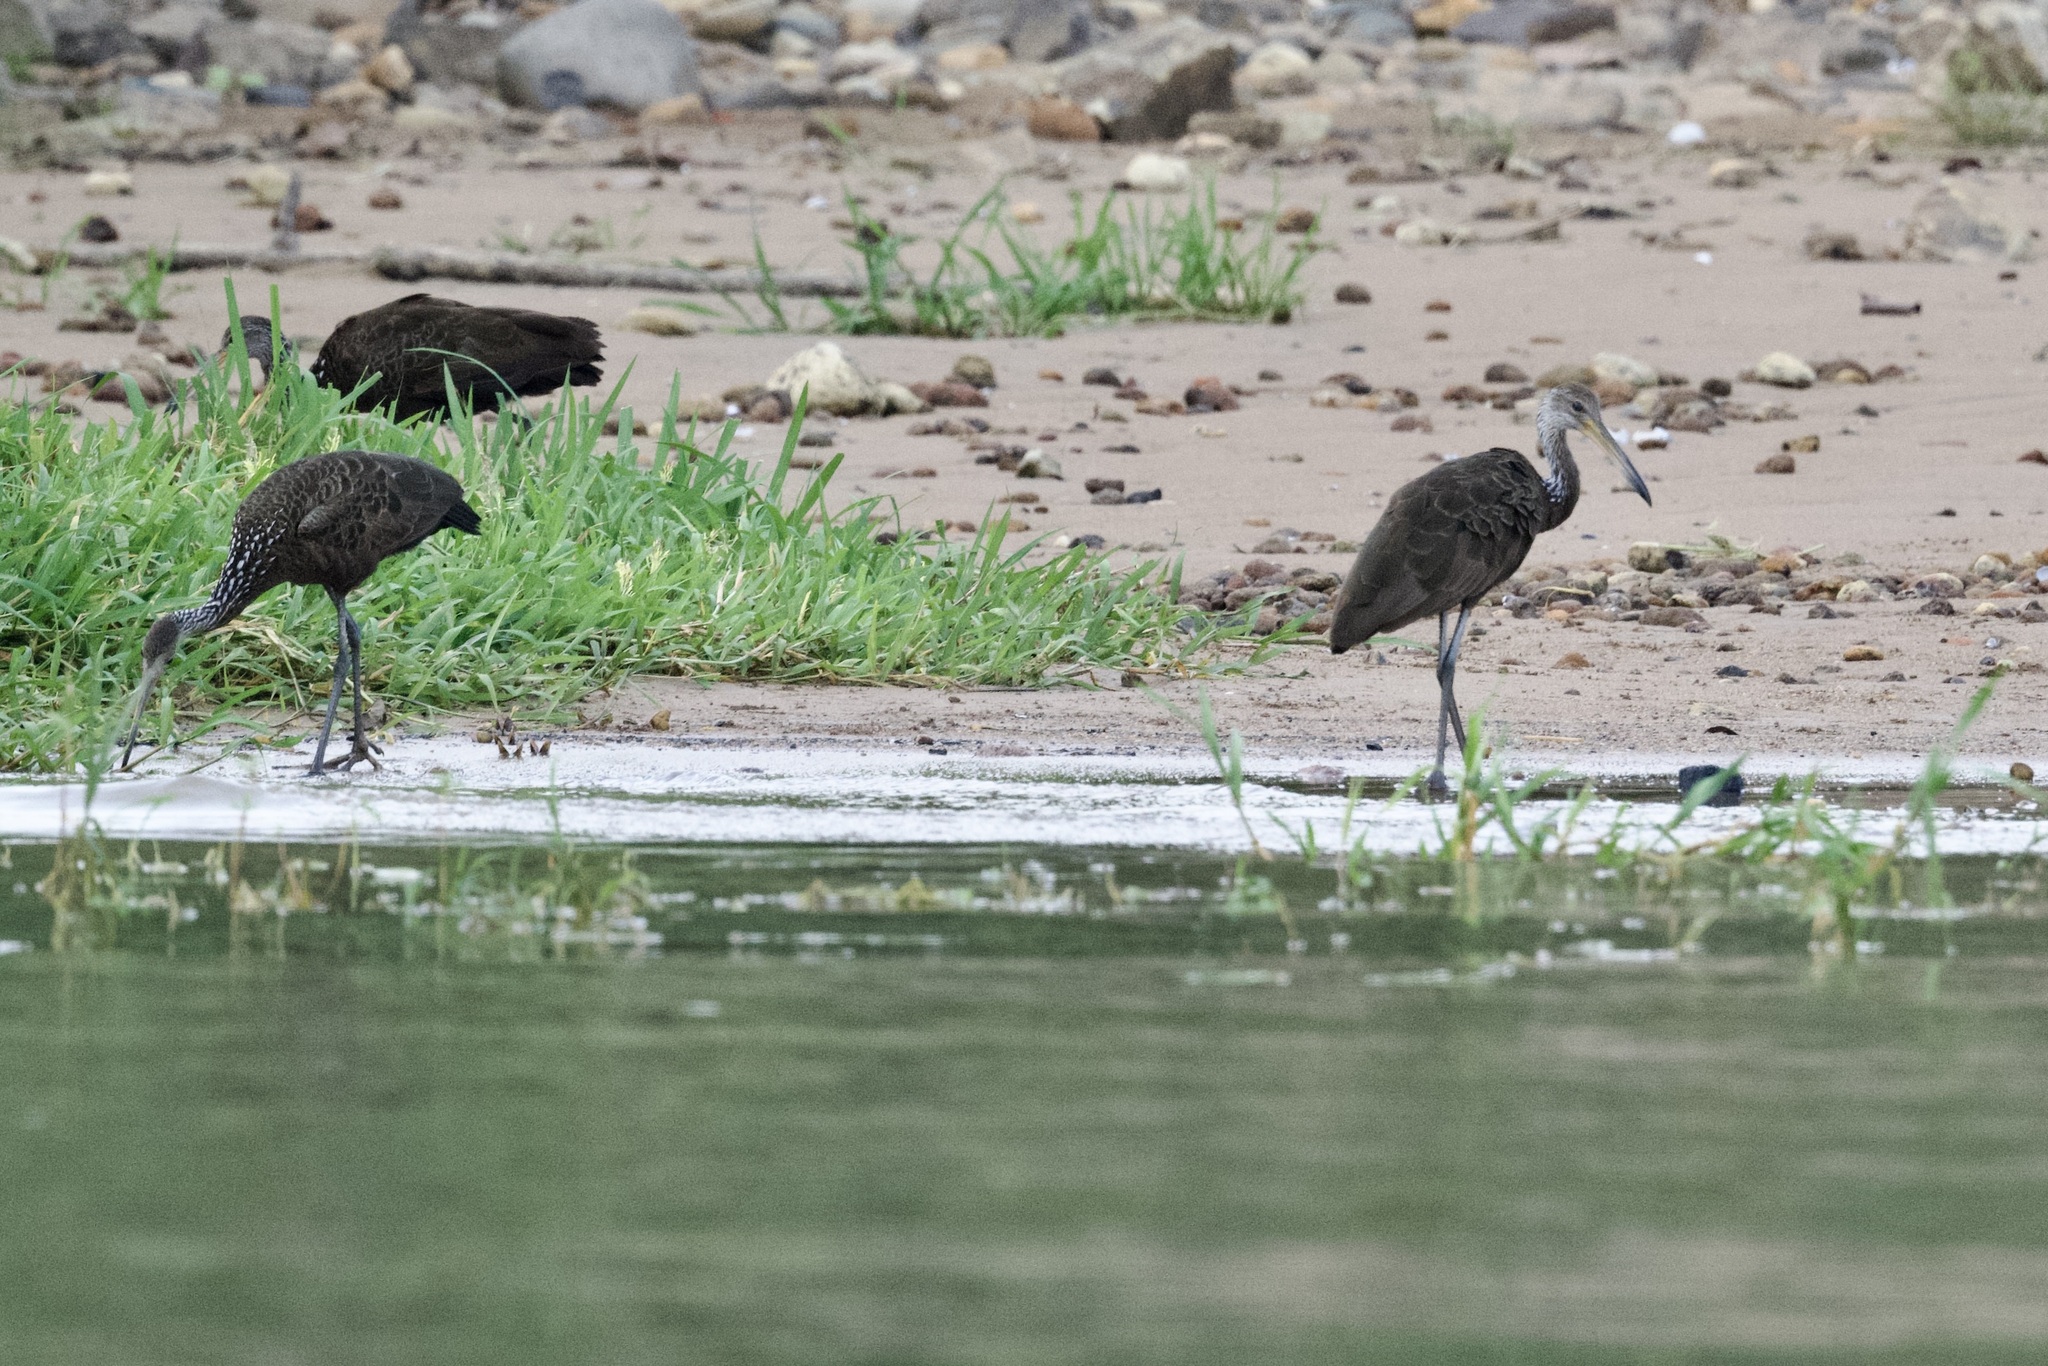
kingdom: Animalia
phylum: Chordata
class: Aves
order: Gruiformes
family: Aramidae
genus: Aramus
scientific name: Aramus guarauna
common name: Limpkin
